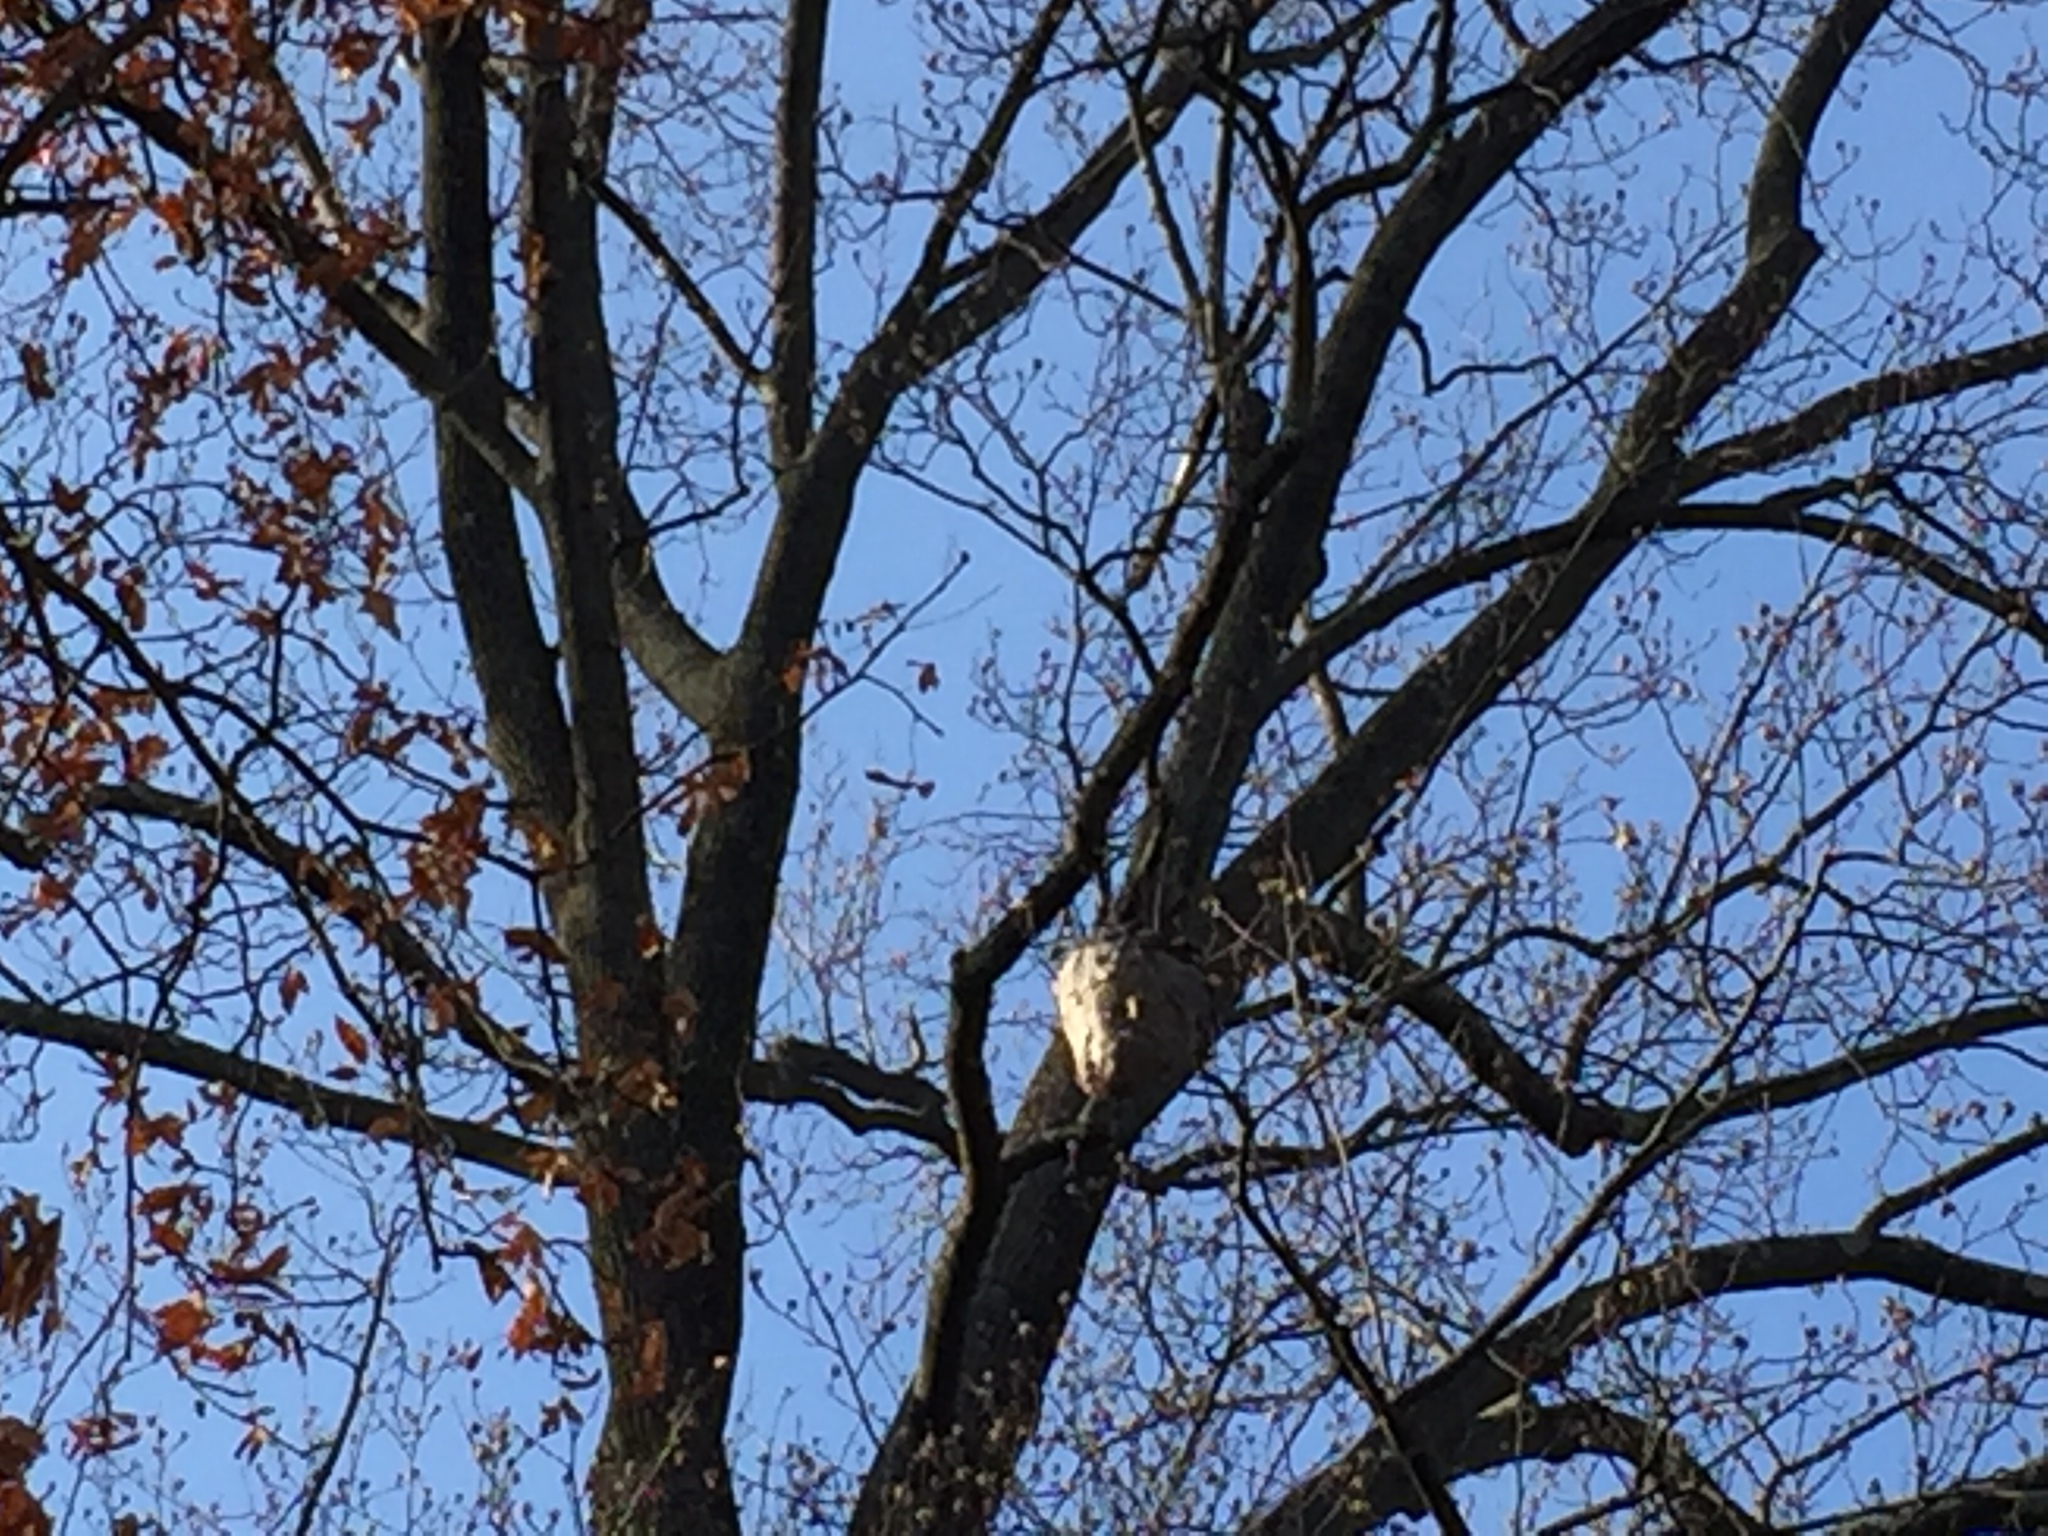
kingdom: Animalia
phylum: Arthropoda
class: Insecta
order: Hymenoptera
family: Vespidae
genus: Dolichovespula
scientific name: Dolichovespula maculata
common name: Bald-faced hornet
